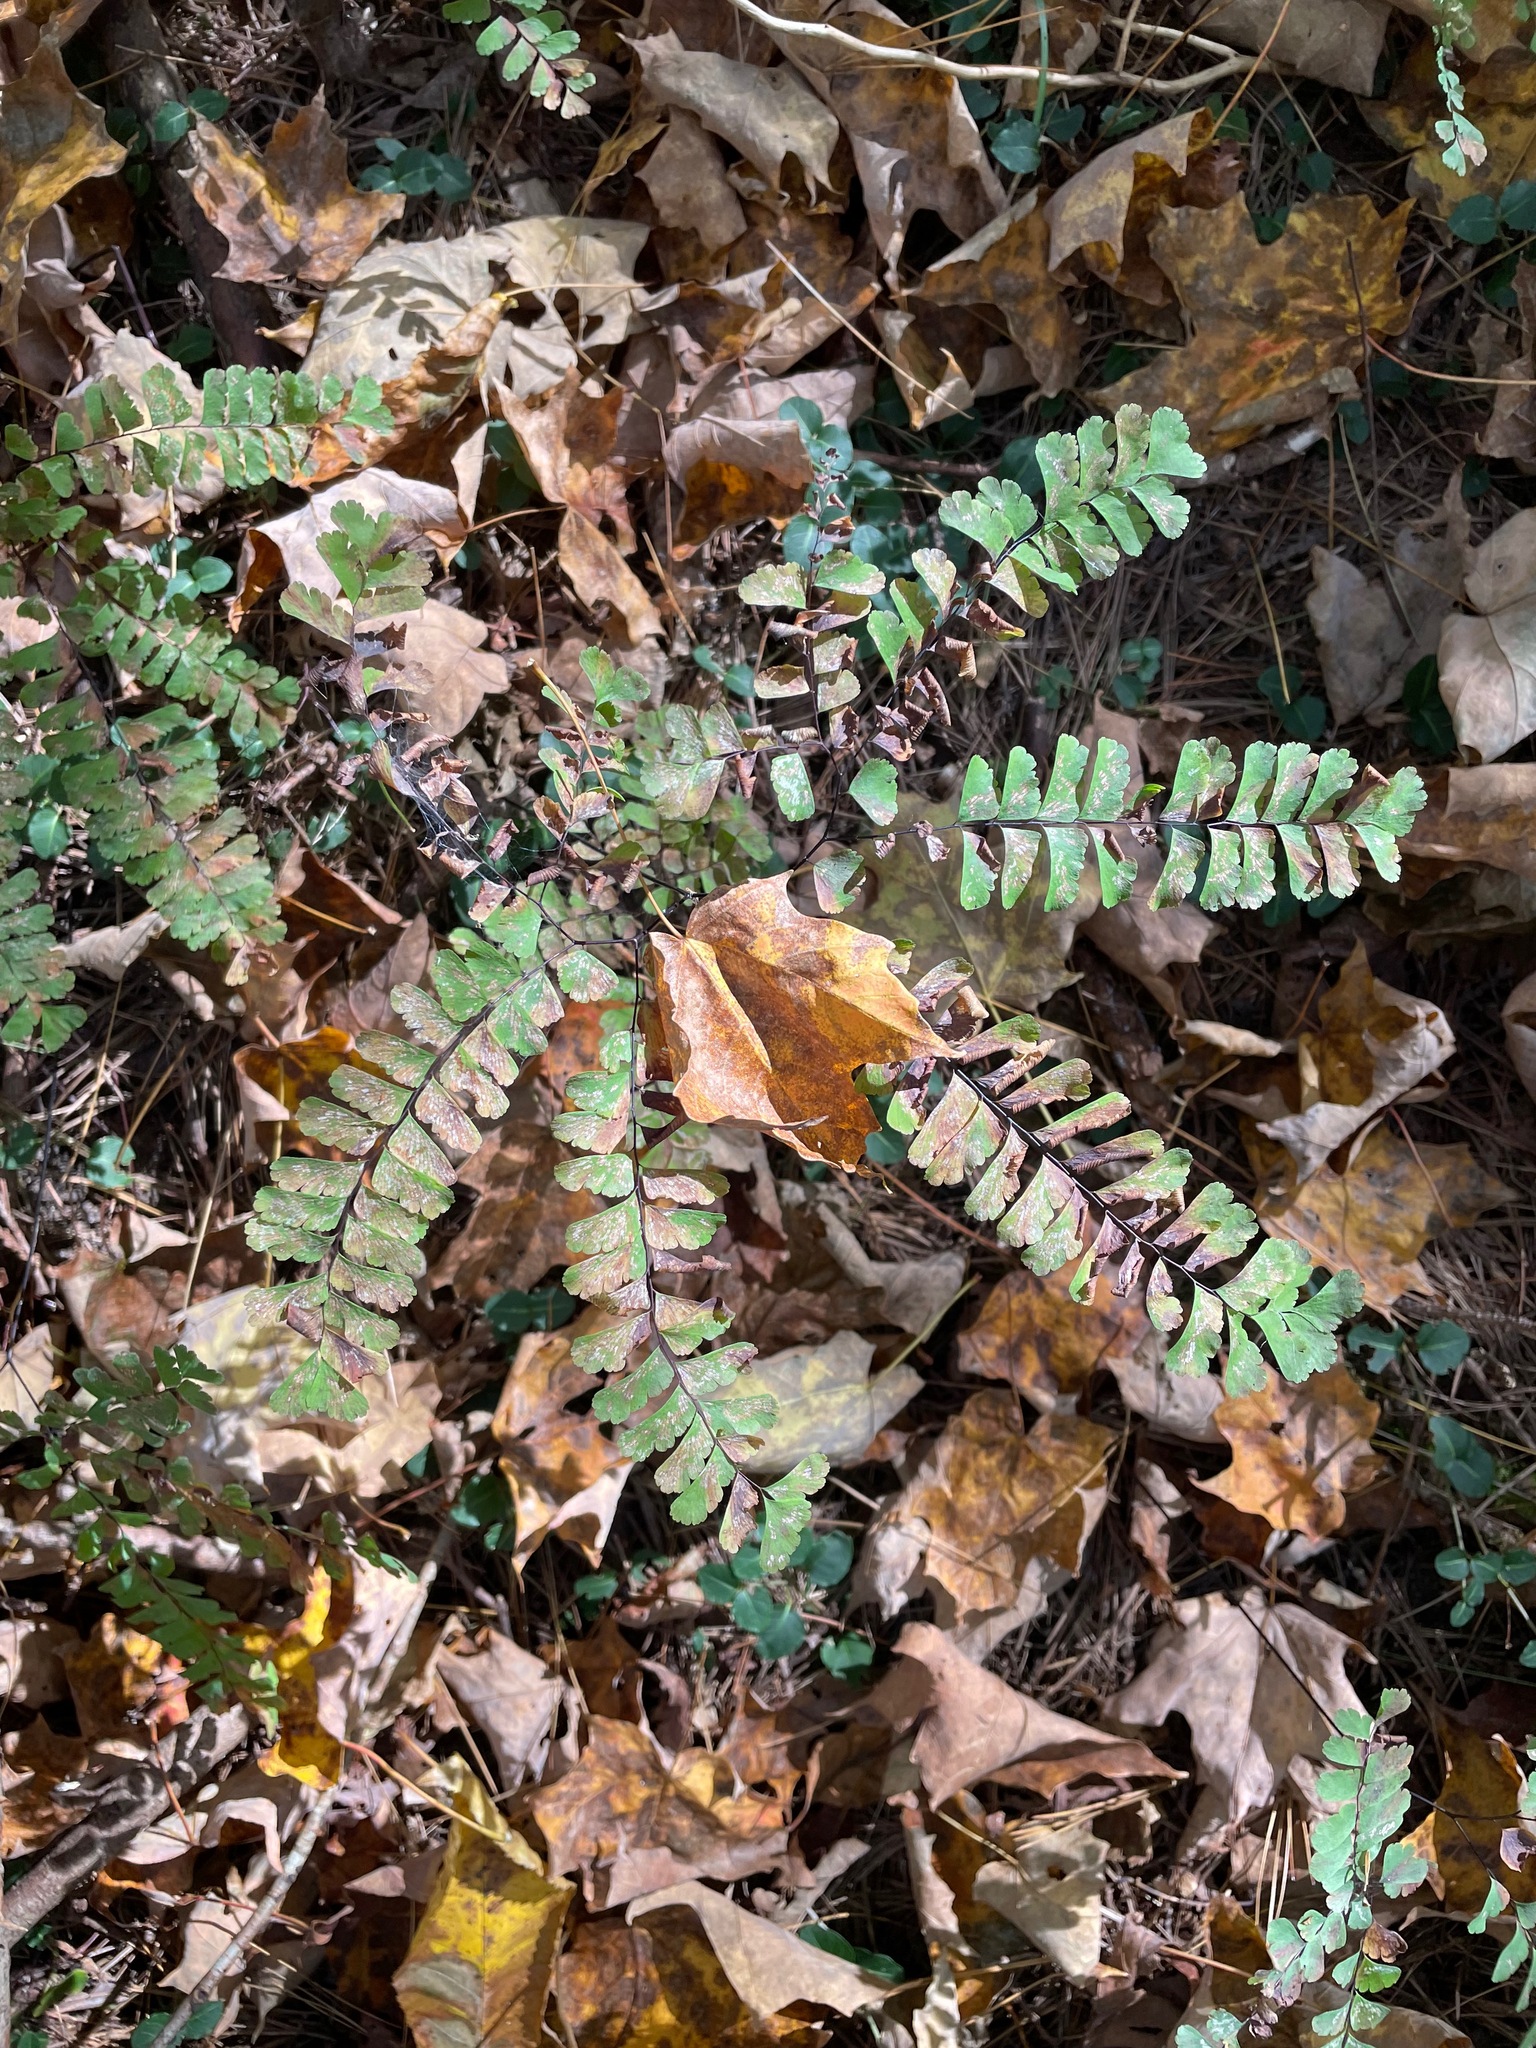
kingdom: Plantae
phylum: Tracheophyta
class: Polypodiopsida
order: Polypodiales
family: Pteridaceae
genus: Adiantum
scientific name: Adiantum pedatum
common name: Five-finger fern
